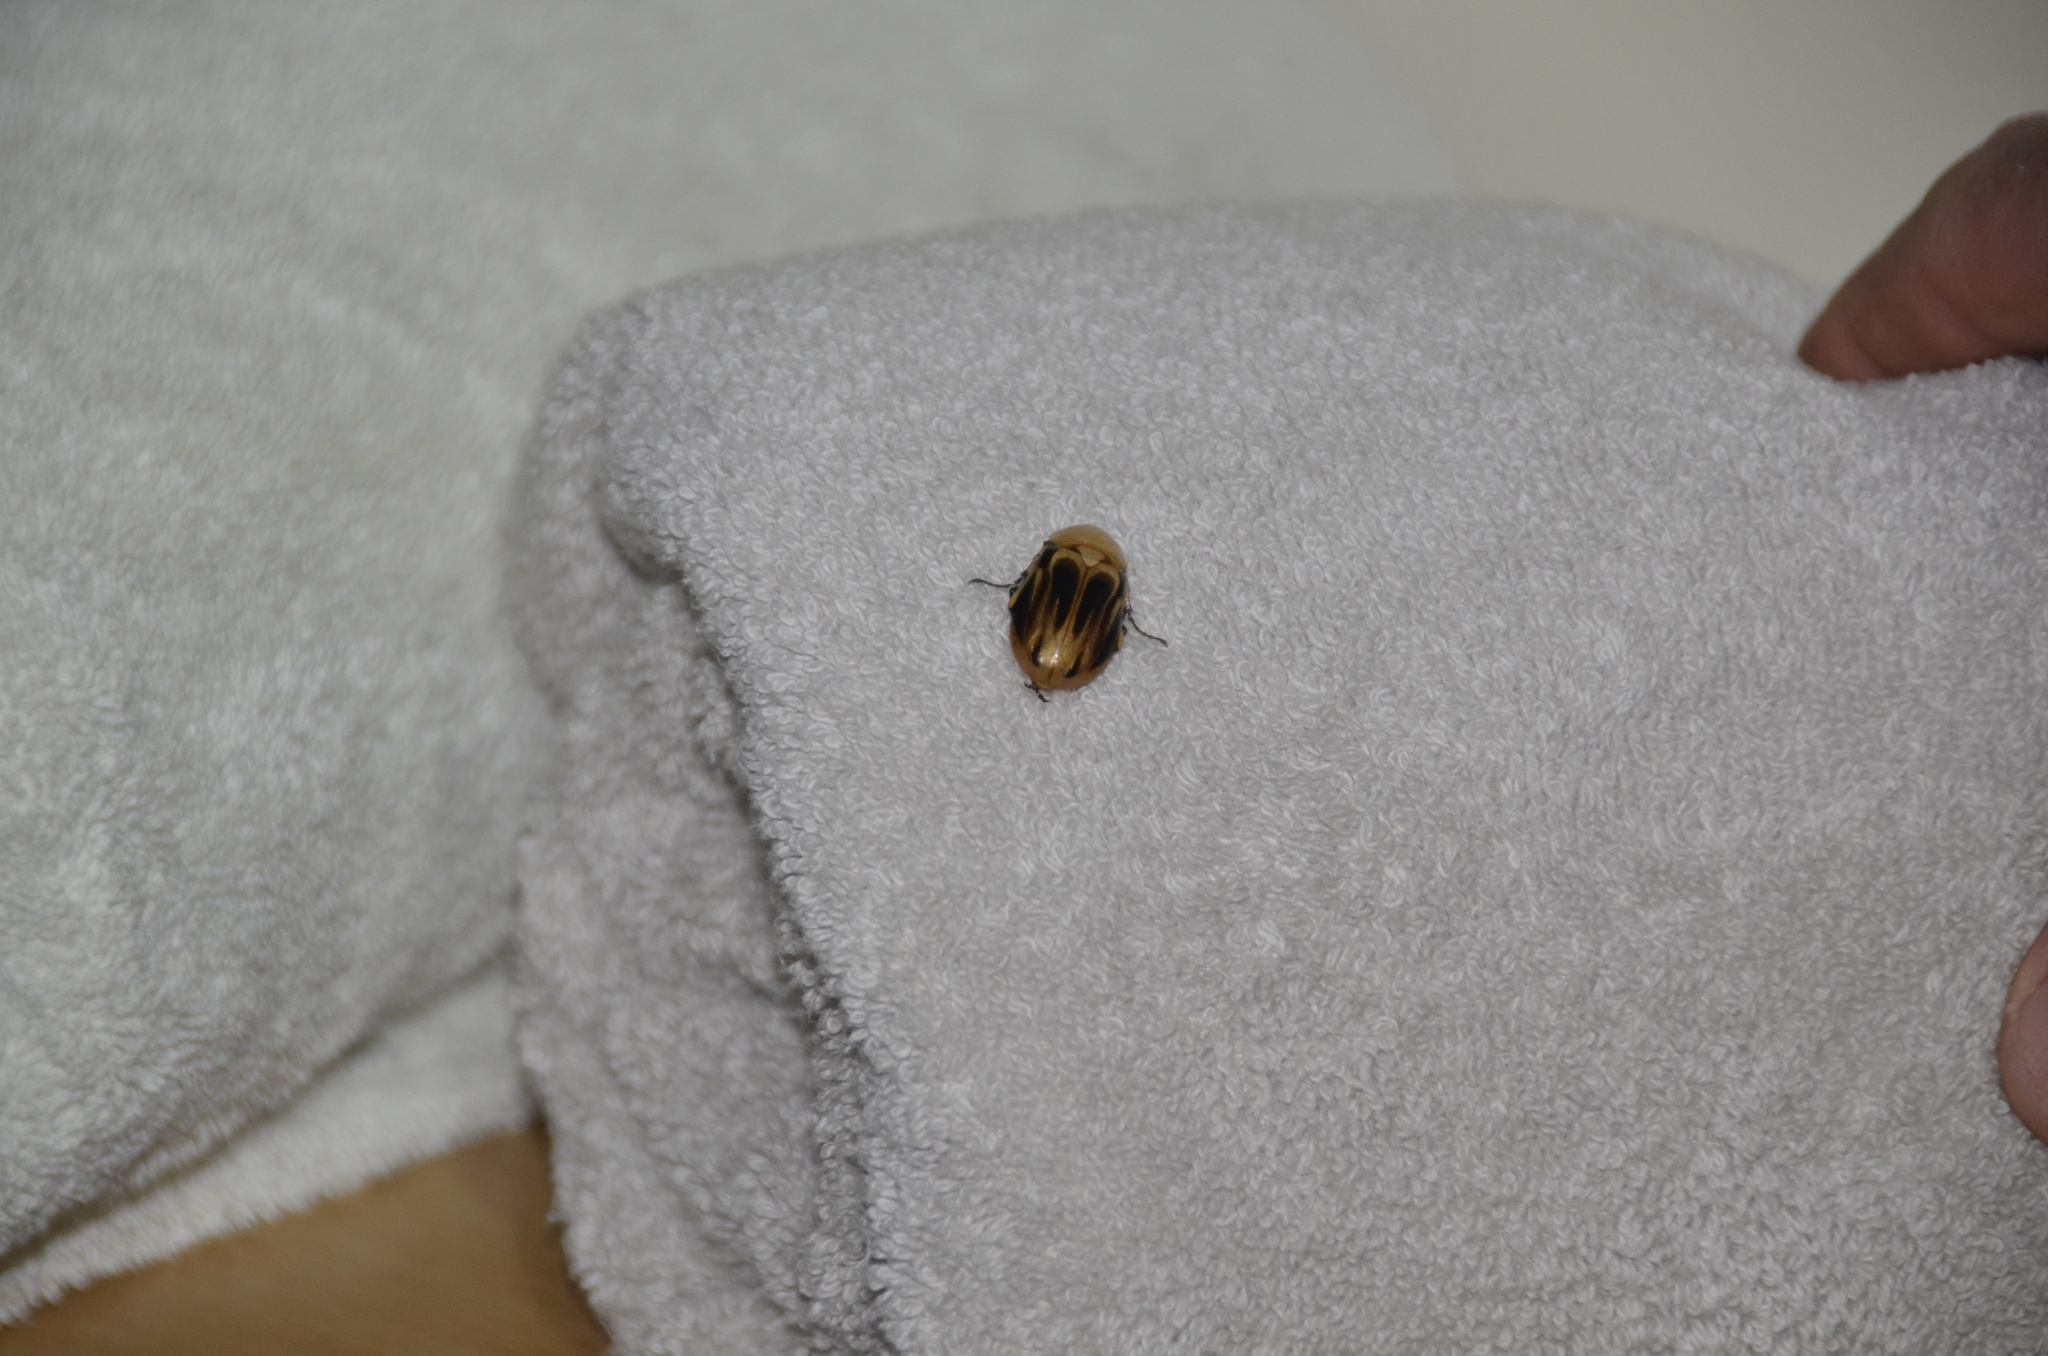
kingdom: Animalia
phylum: Arthropoda
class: Insecta
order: Coleoptera
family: Scarabaeidae
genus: Ancognatha
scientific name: Ancognatha vulgaris
